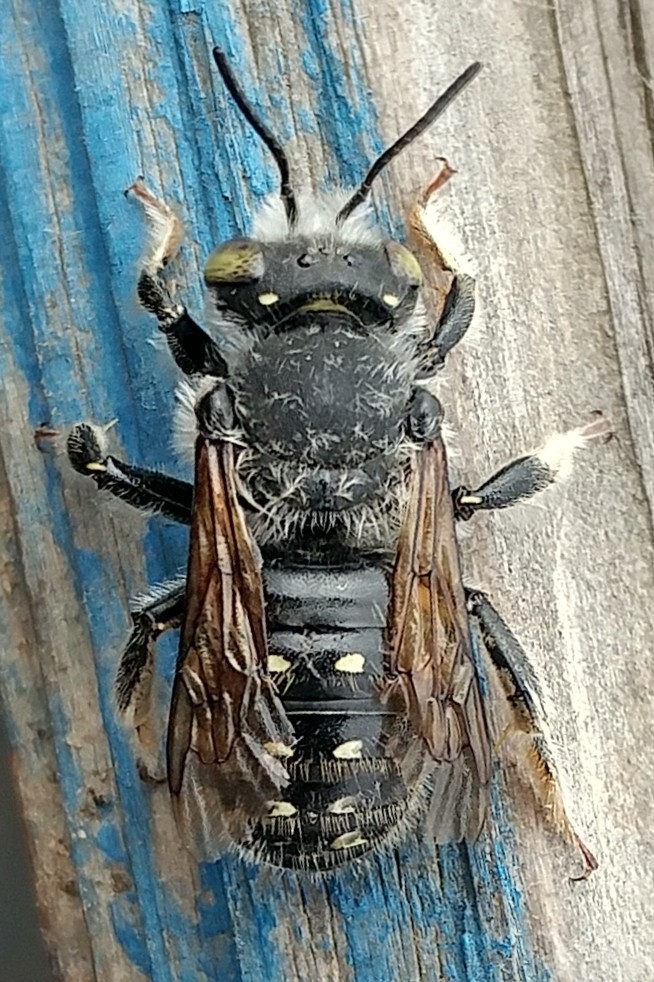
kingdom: Animalia
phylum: Arthropoda
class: Insecta
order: Hymenoptera
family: Megachilidae
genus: Anthidium
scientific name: Anthidium collectum
